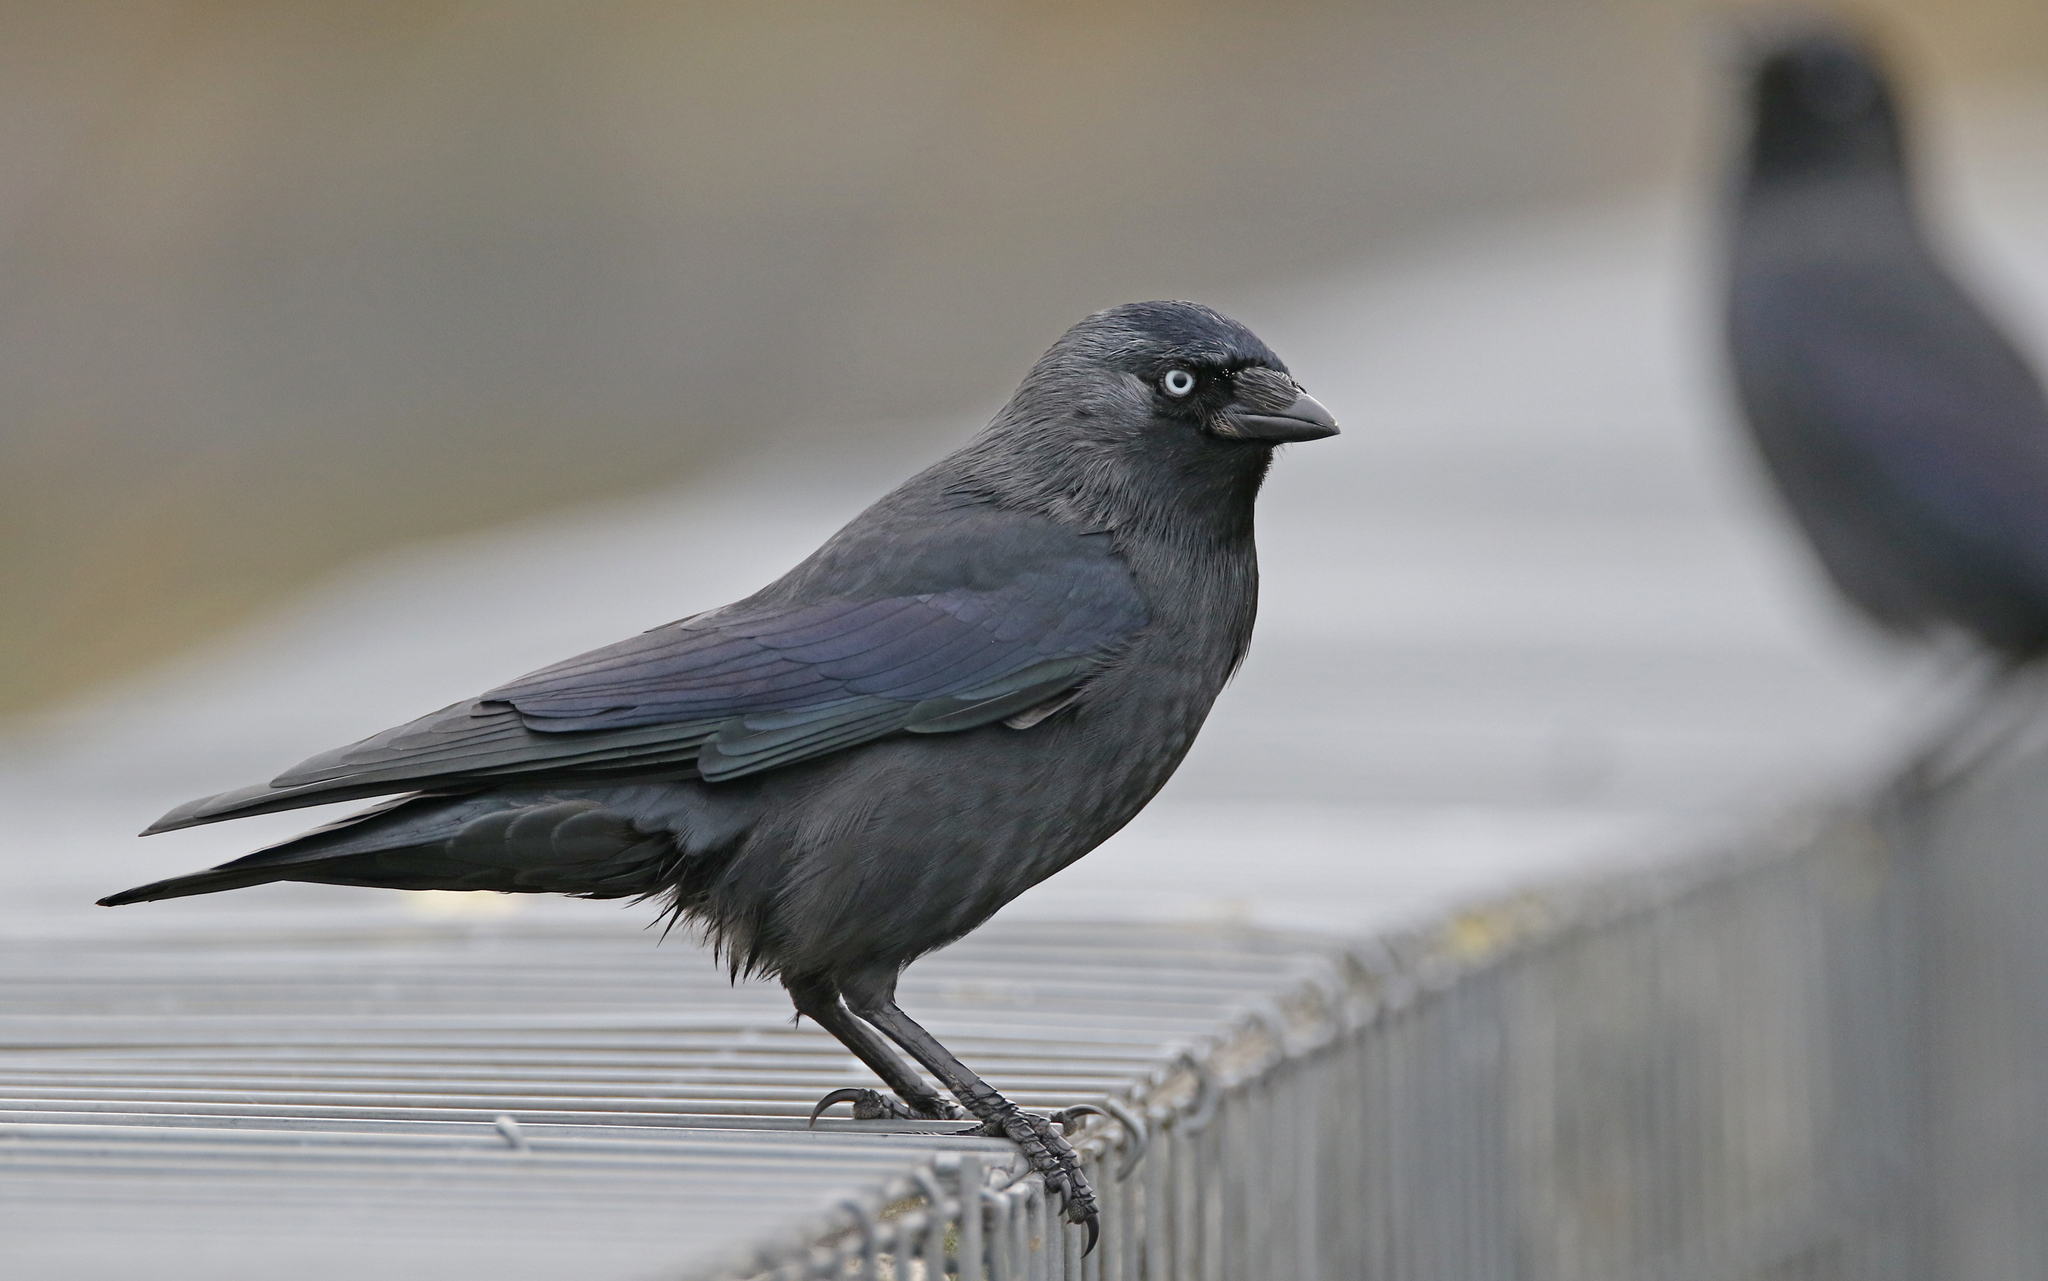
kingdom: Animalia
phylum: Chordata
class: Aves
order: Passeriformes
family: Corvidae
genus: Coloeus
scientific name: Coloeus monedula
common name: Western jackdaw
